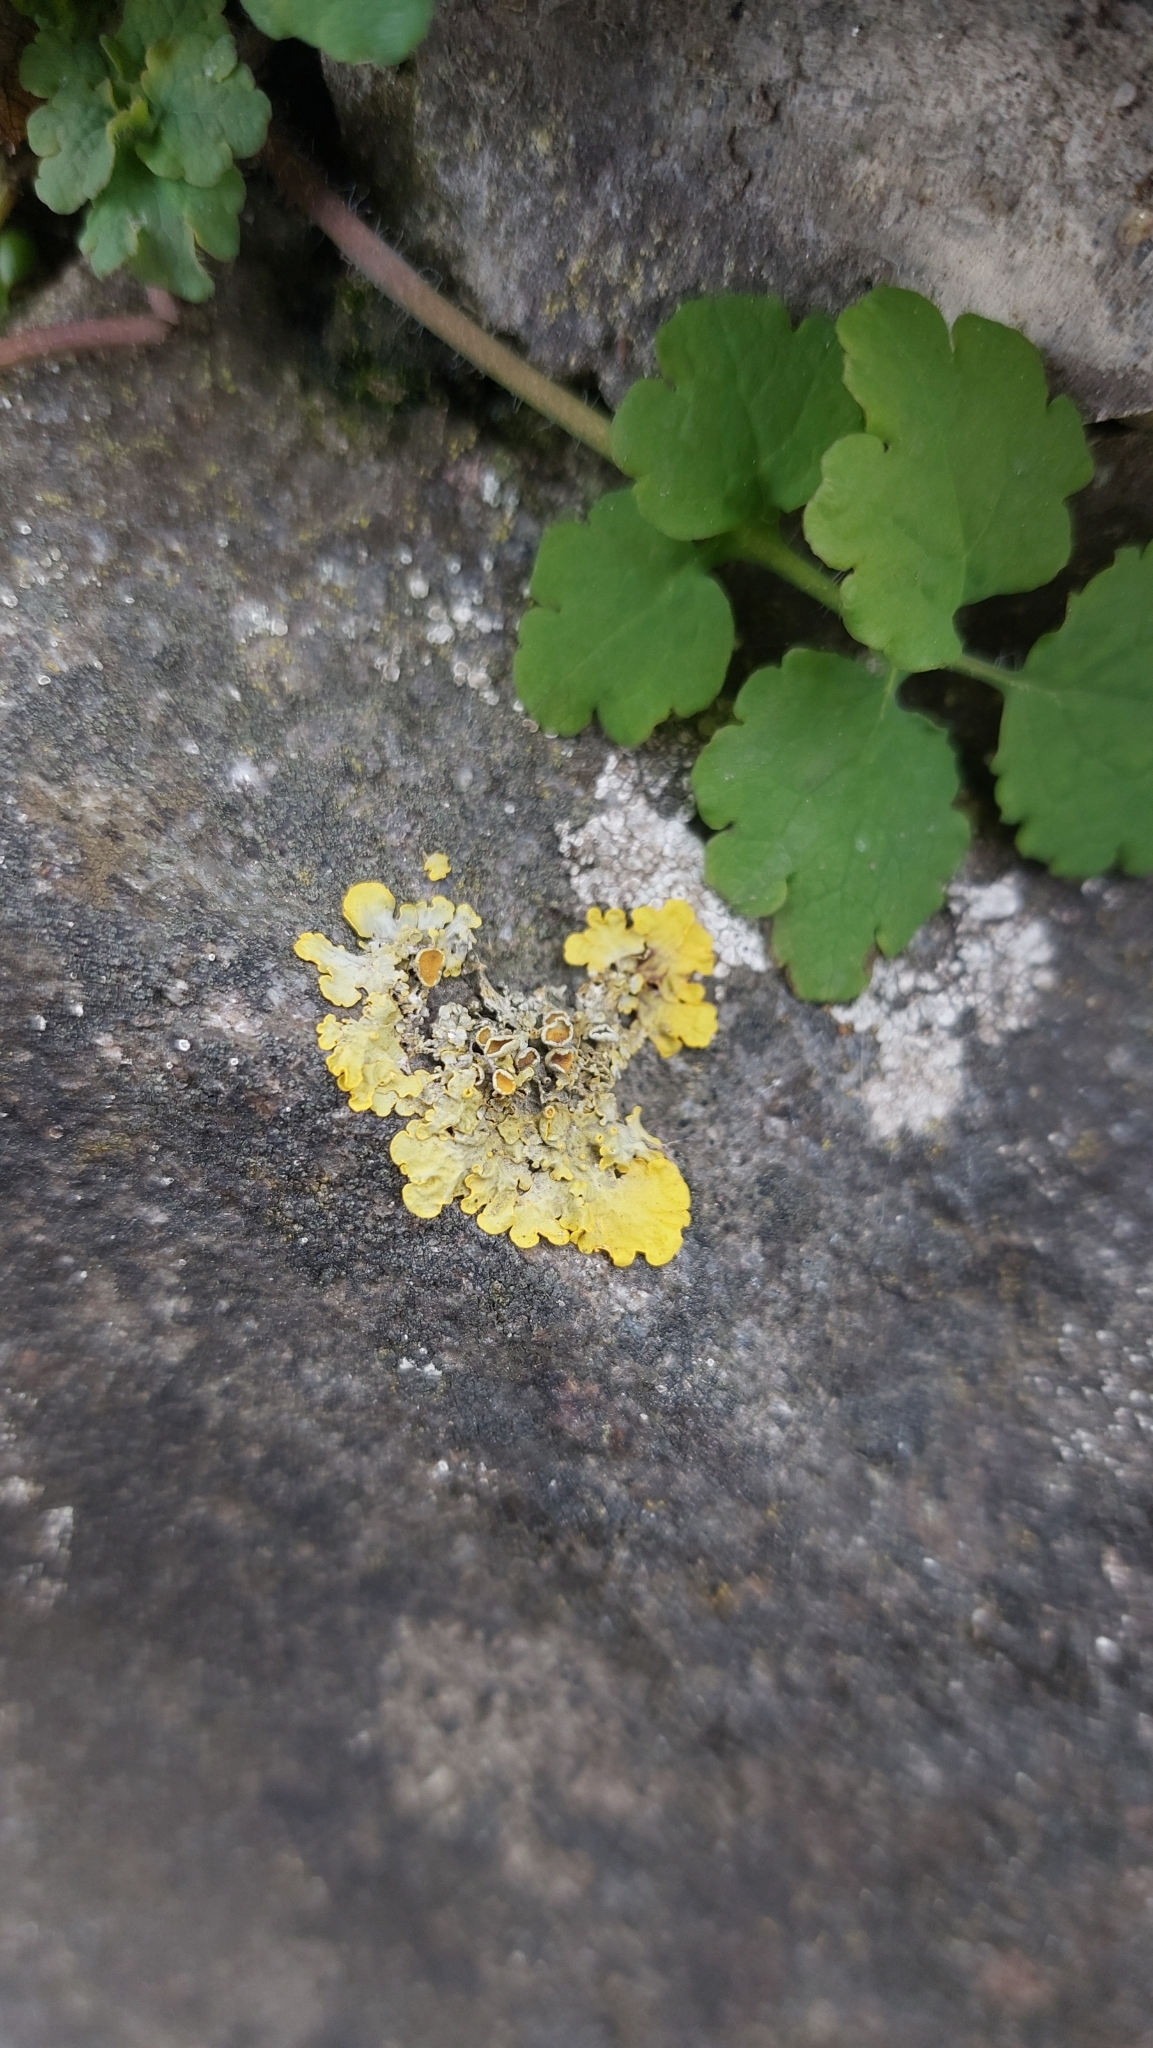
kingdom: Fungi
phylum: Ascomycota
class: Lecanoromycetes
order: Teloschistales
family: Teloschistaceae
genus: Xanthoria
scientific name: Xanthoria parietina
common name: Common orange lichen
